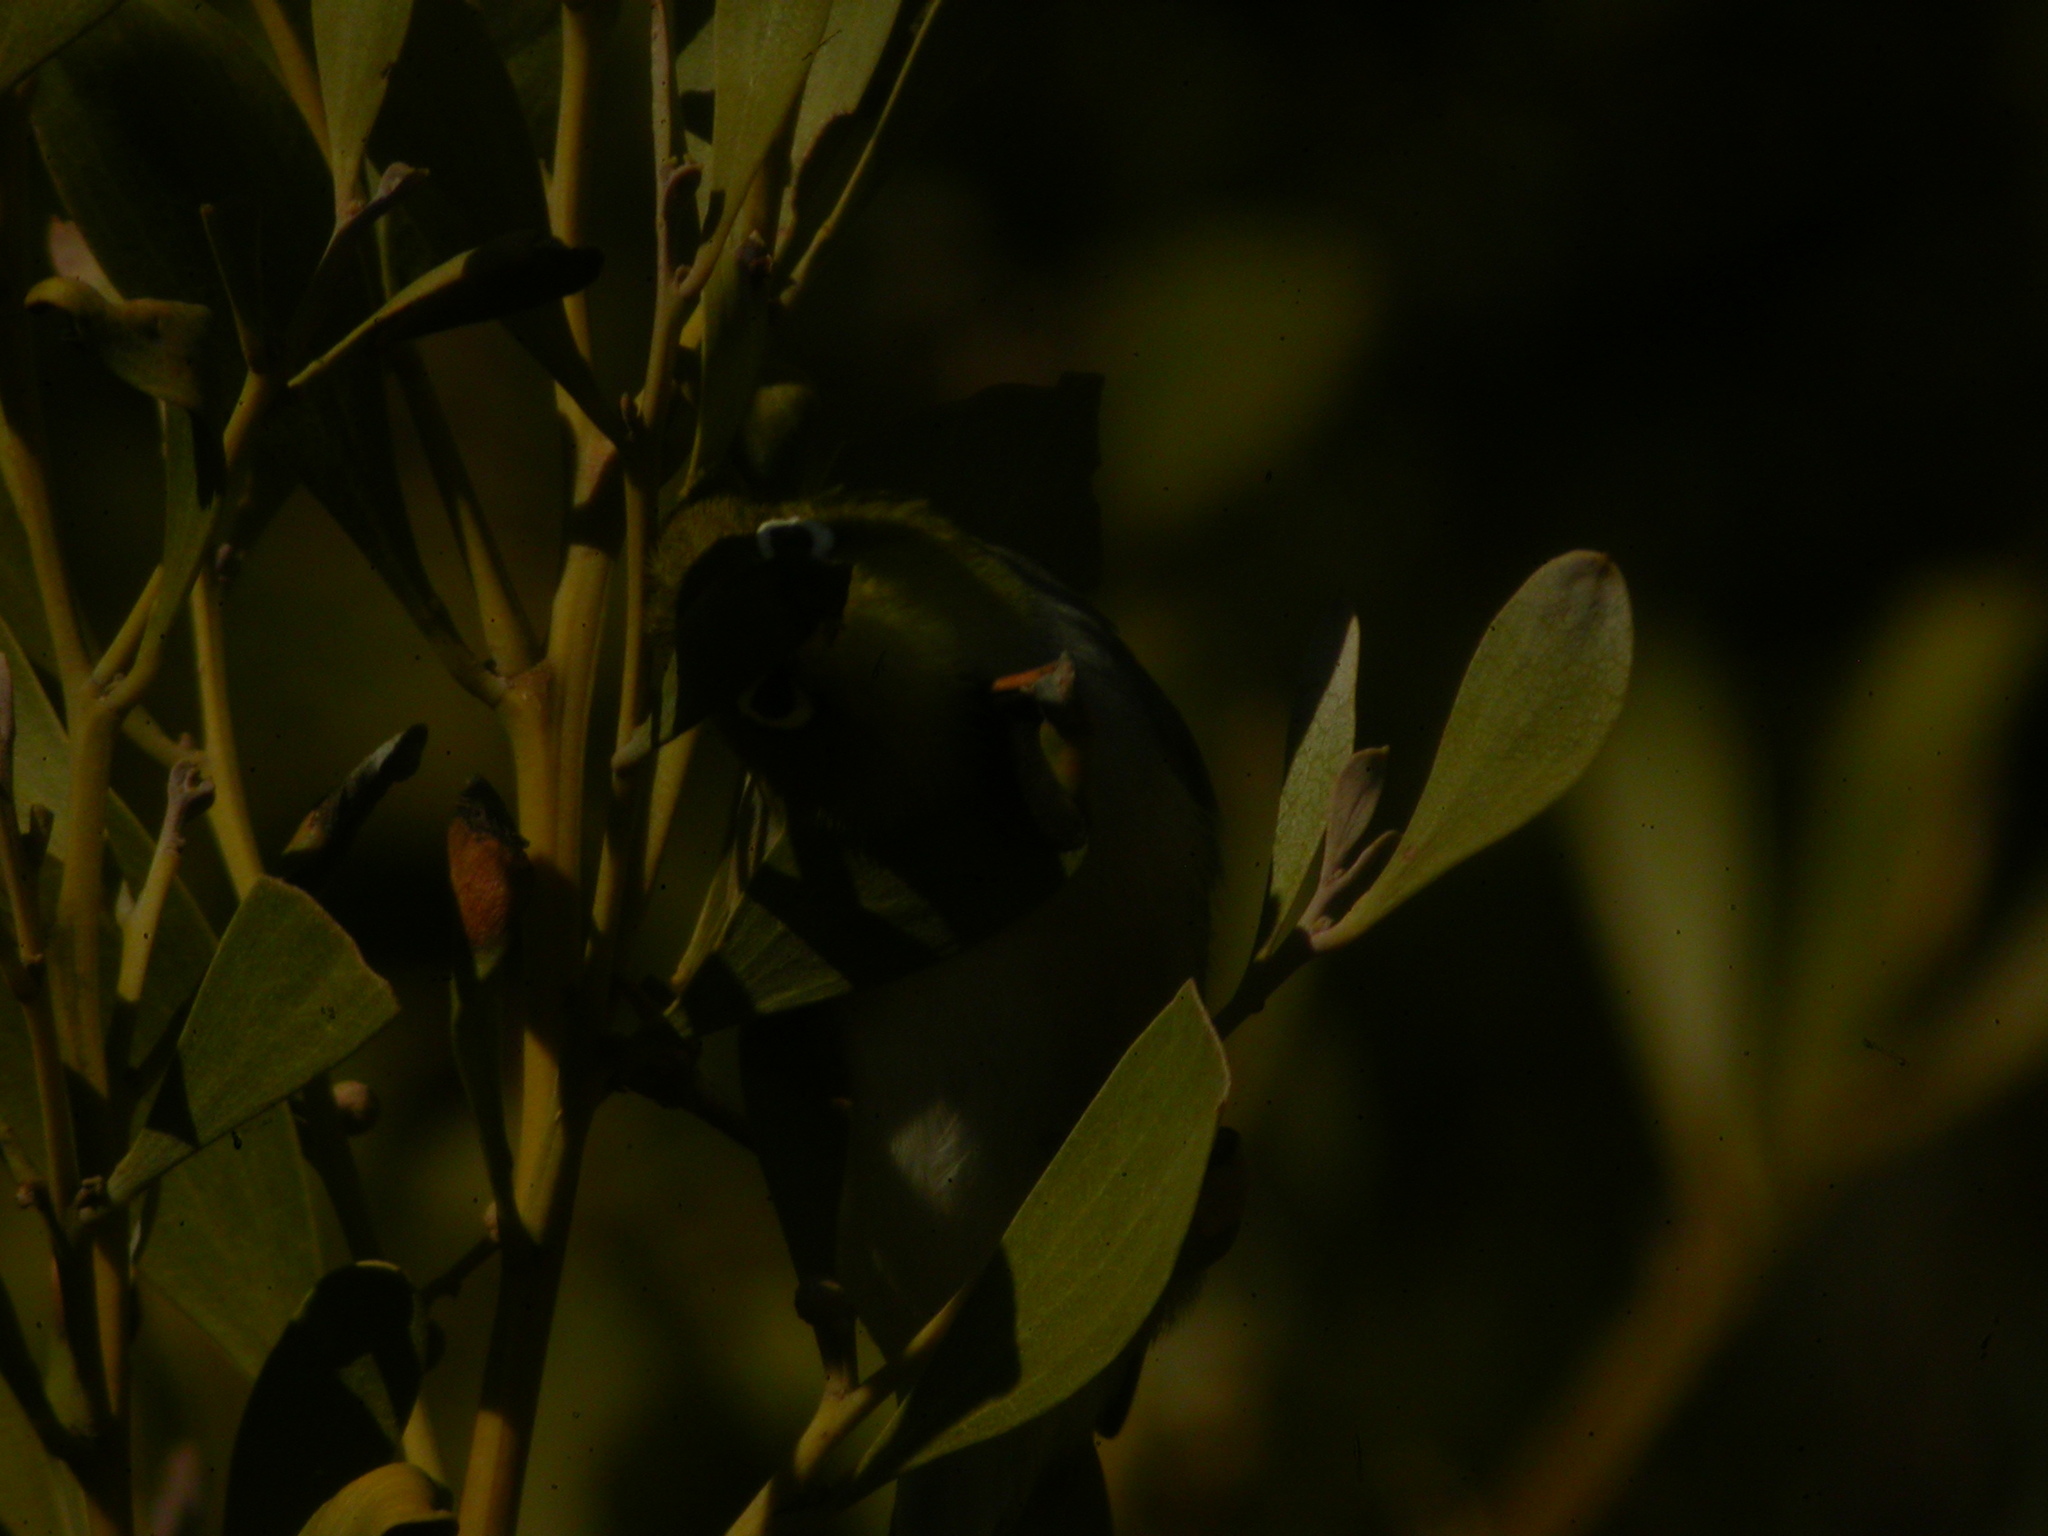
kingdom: Animalia
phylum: Chordata
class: Aves
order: Passeriformes
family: Zosteropidae
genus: Zosterops
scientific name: Zosterops lateralis
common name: Silvereye
